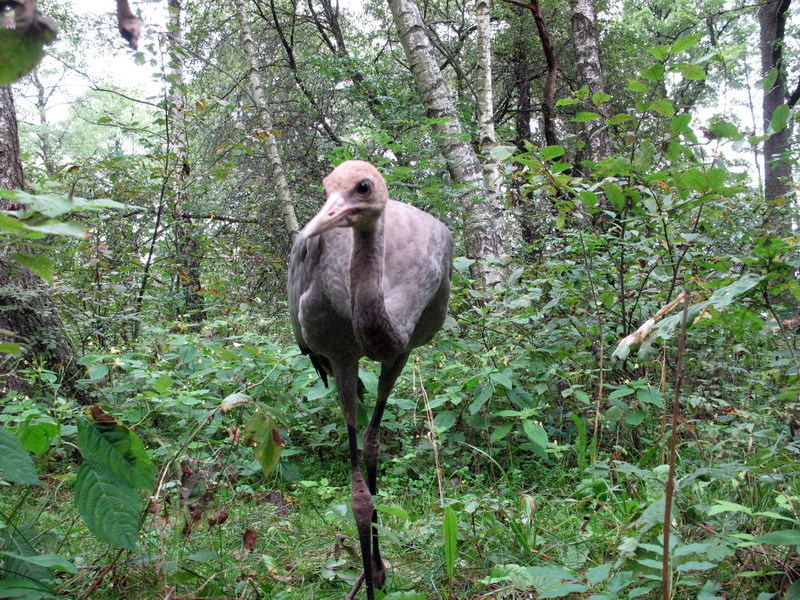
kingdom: Animalia
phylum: Chordata
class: Aves
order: Gruiformes
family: Gruidae
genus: Grus
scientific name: Grus grus
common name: Common crane
